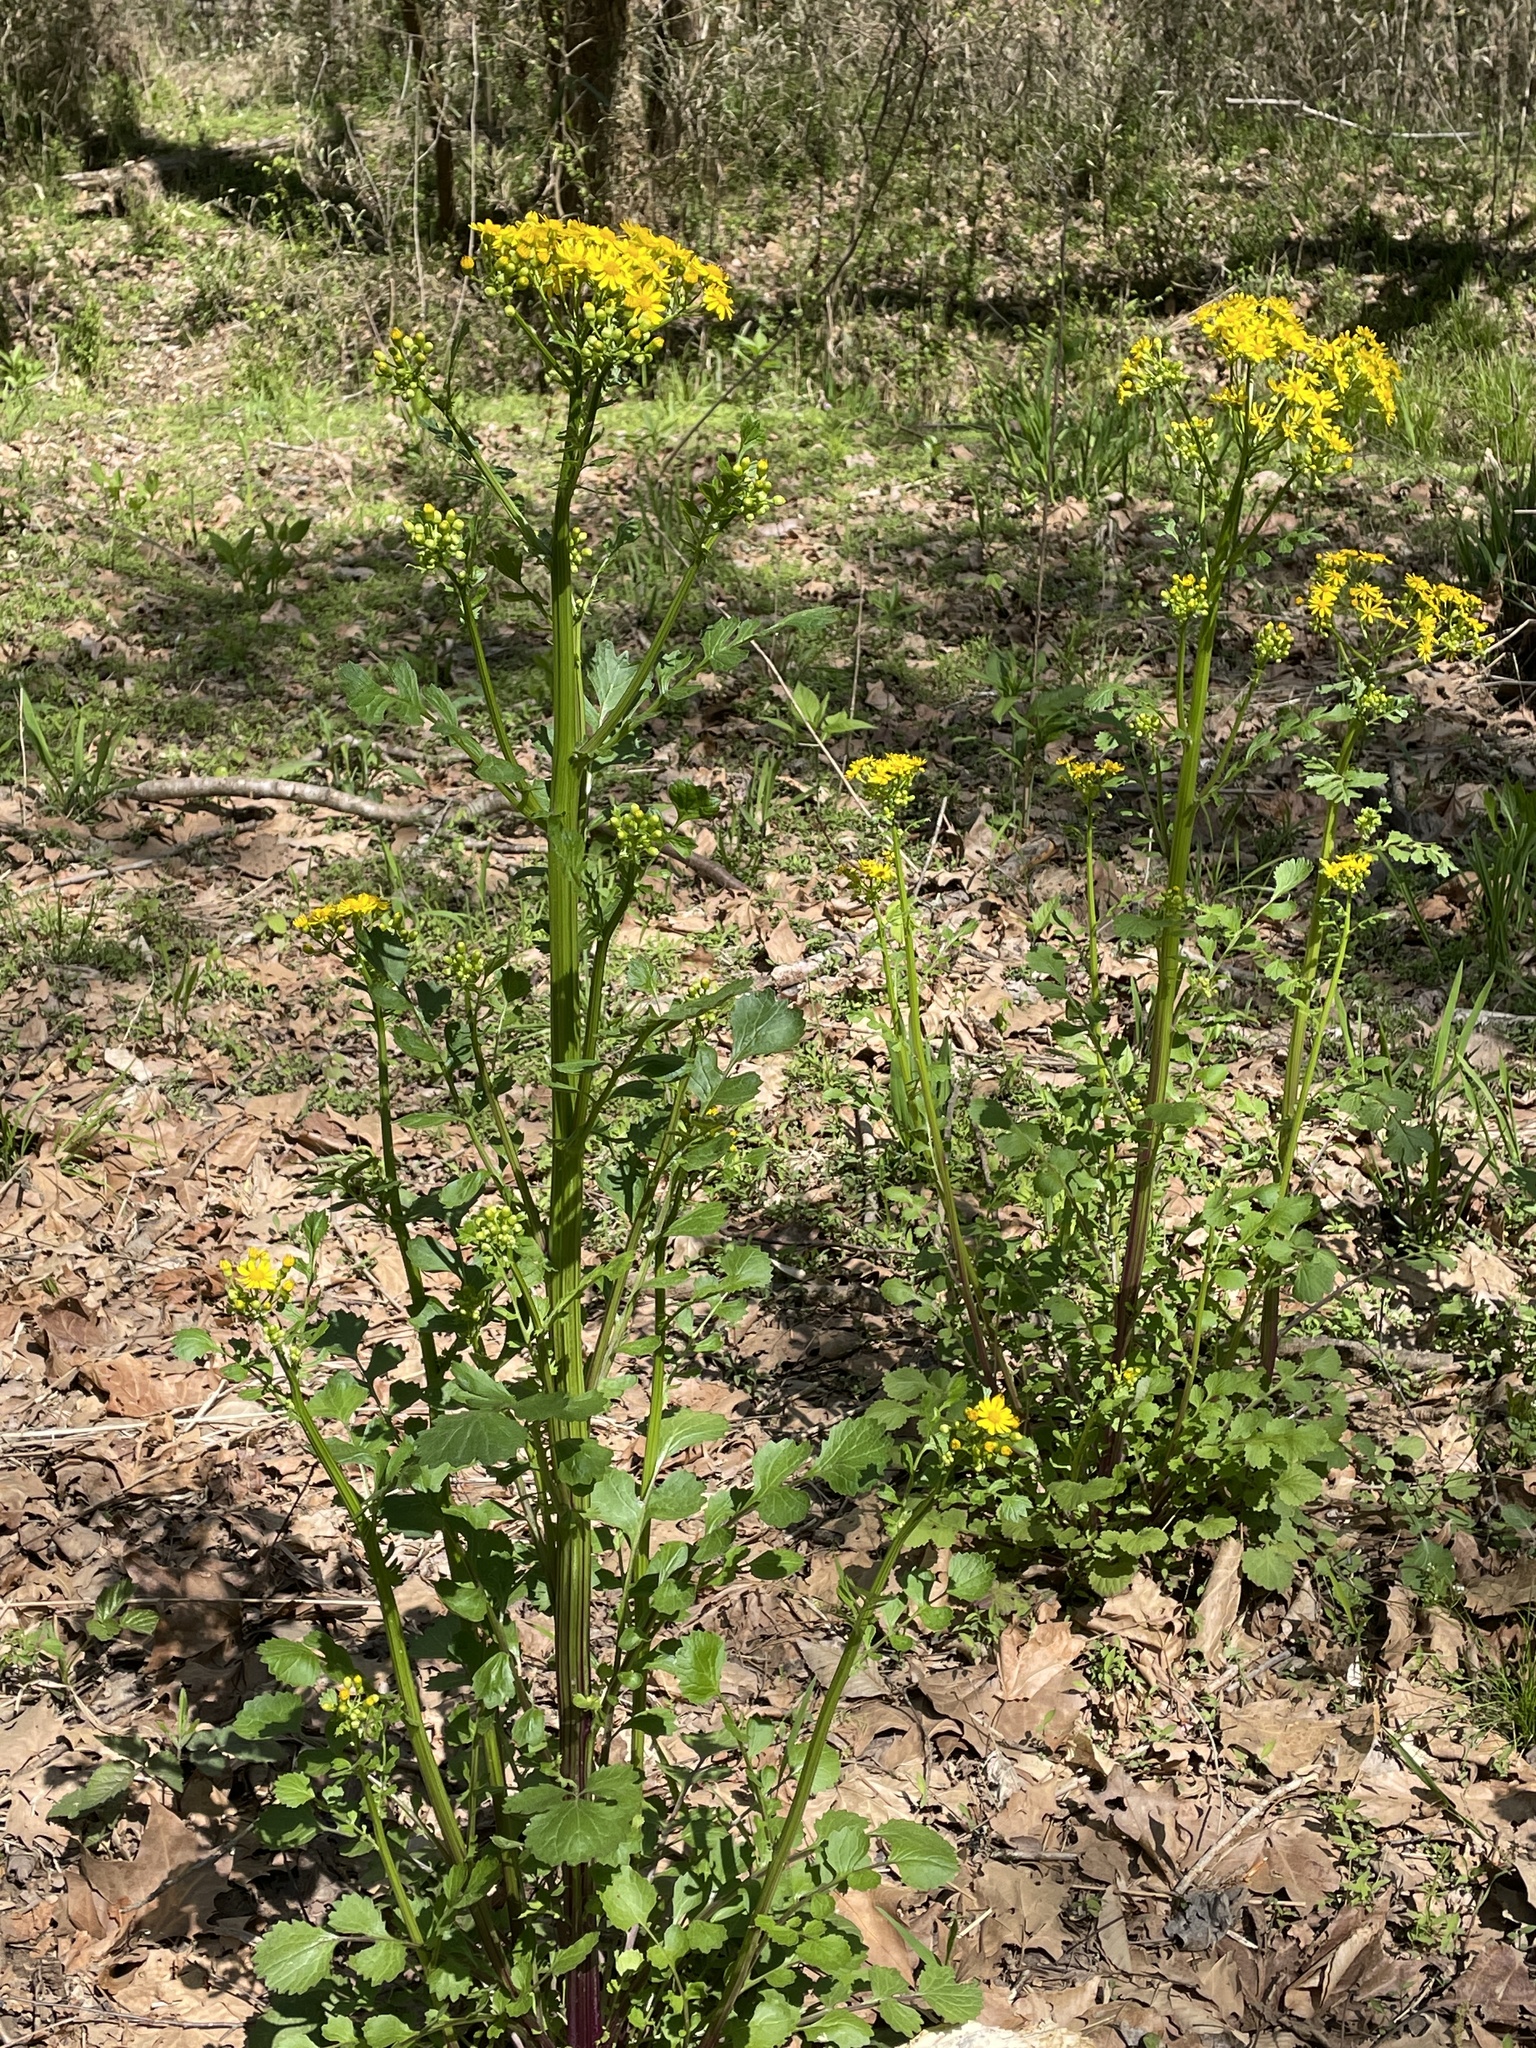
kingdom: Plantae
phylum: Tracheophyta
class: Magnoliopsida
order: Asterales
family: Asteraceae
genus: Packera
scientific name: Packera glabella
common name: Butterweed
